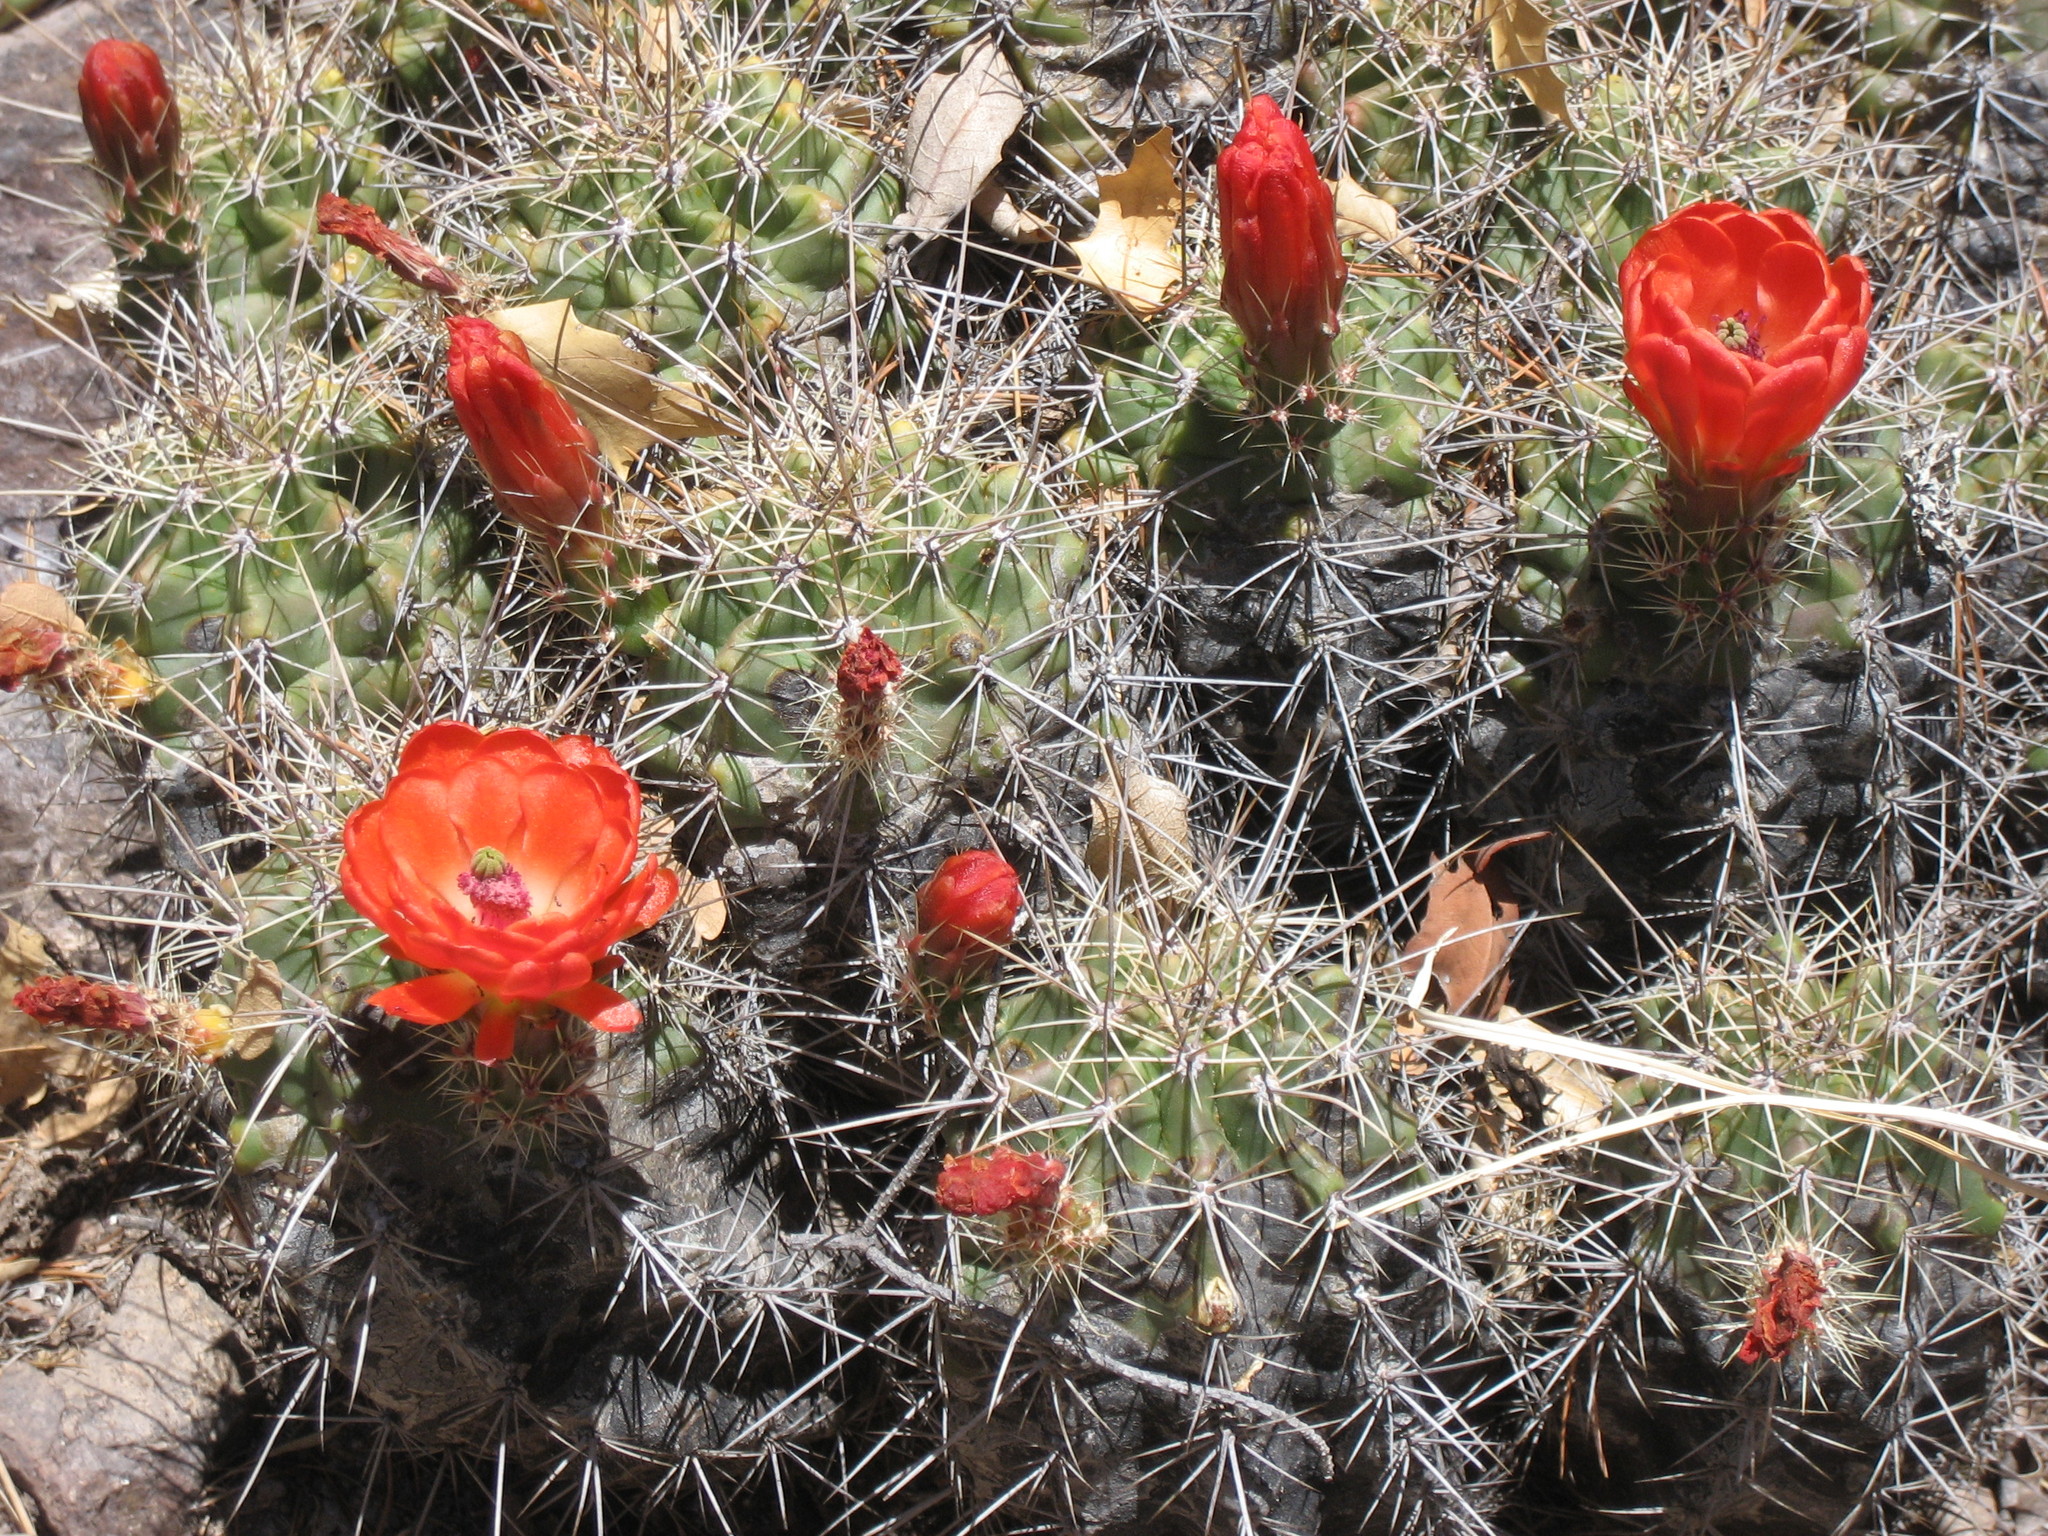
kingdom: Plantae
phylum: Tracheophyta
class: Magnoliopsida
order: Caryophyllales
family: Cactaceae
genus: Echinocereus
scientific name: Echinocereus coccineus
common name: Scarlet hedgehog cactus
